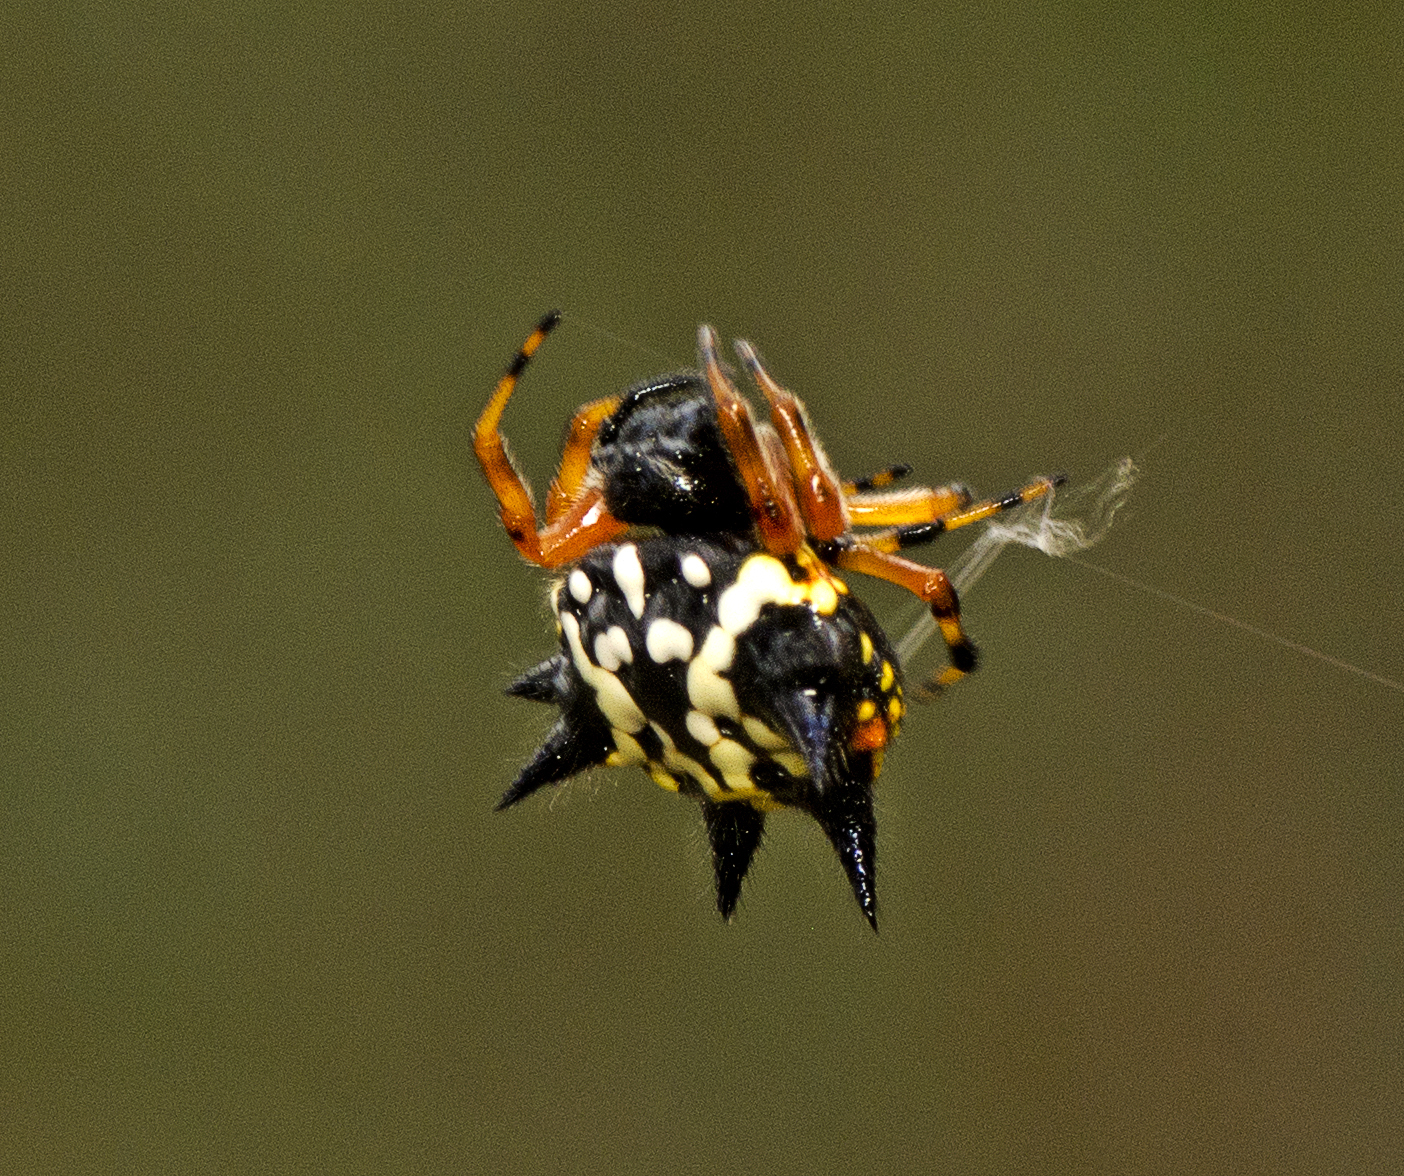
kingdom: Animalia
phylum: Arthropoda
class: Arachnida
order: Araneae
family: Araneidae
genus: Austracantha
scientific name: Austracantha minax
